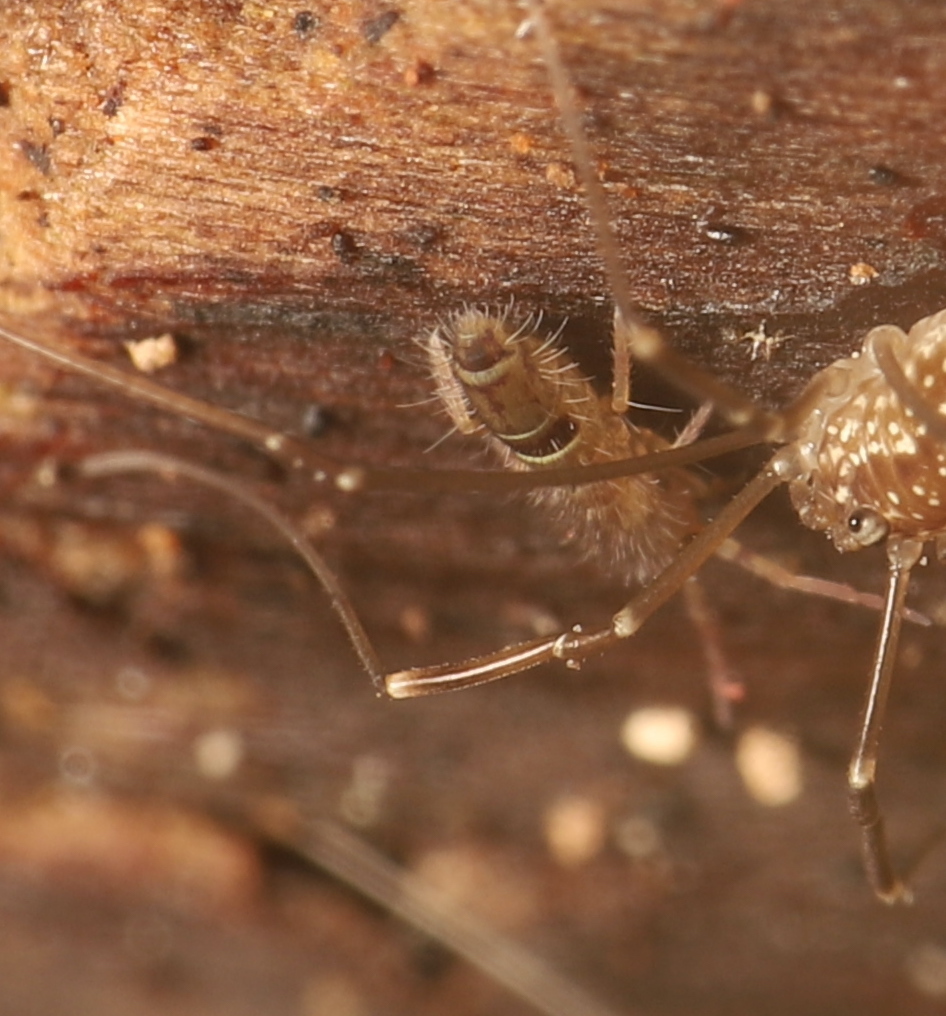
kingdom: Animalia
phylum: Arthropoda
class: Collembola
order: Entomobryomorpha
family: Orchesellidae
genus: Orchesella
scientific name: Orchesella cincta
